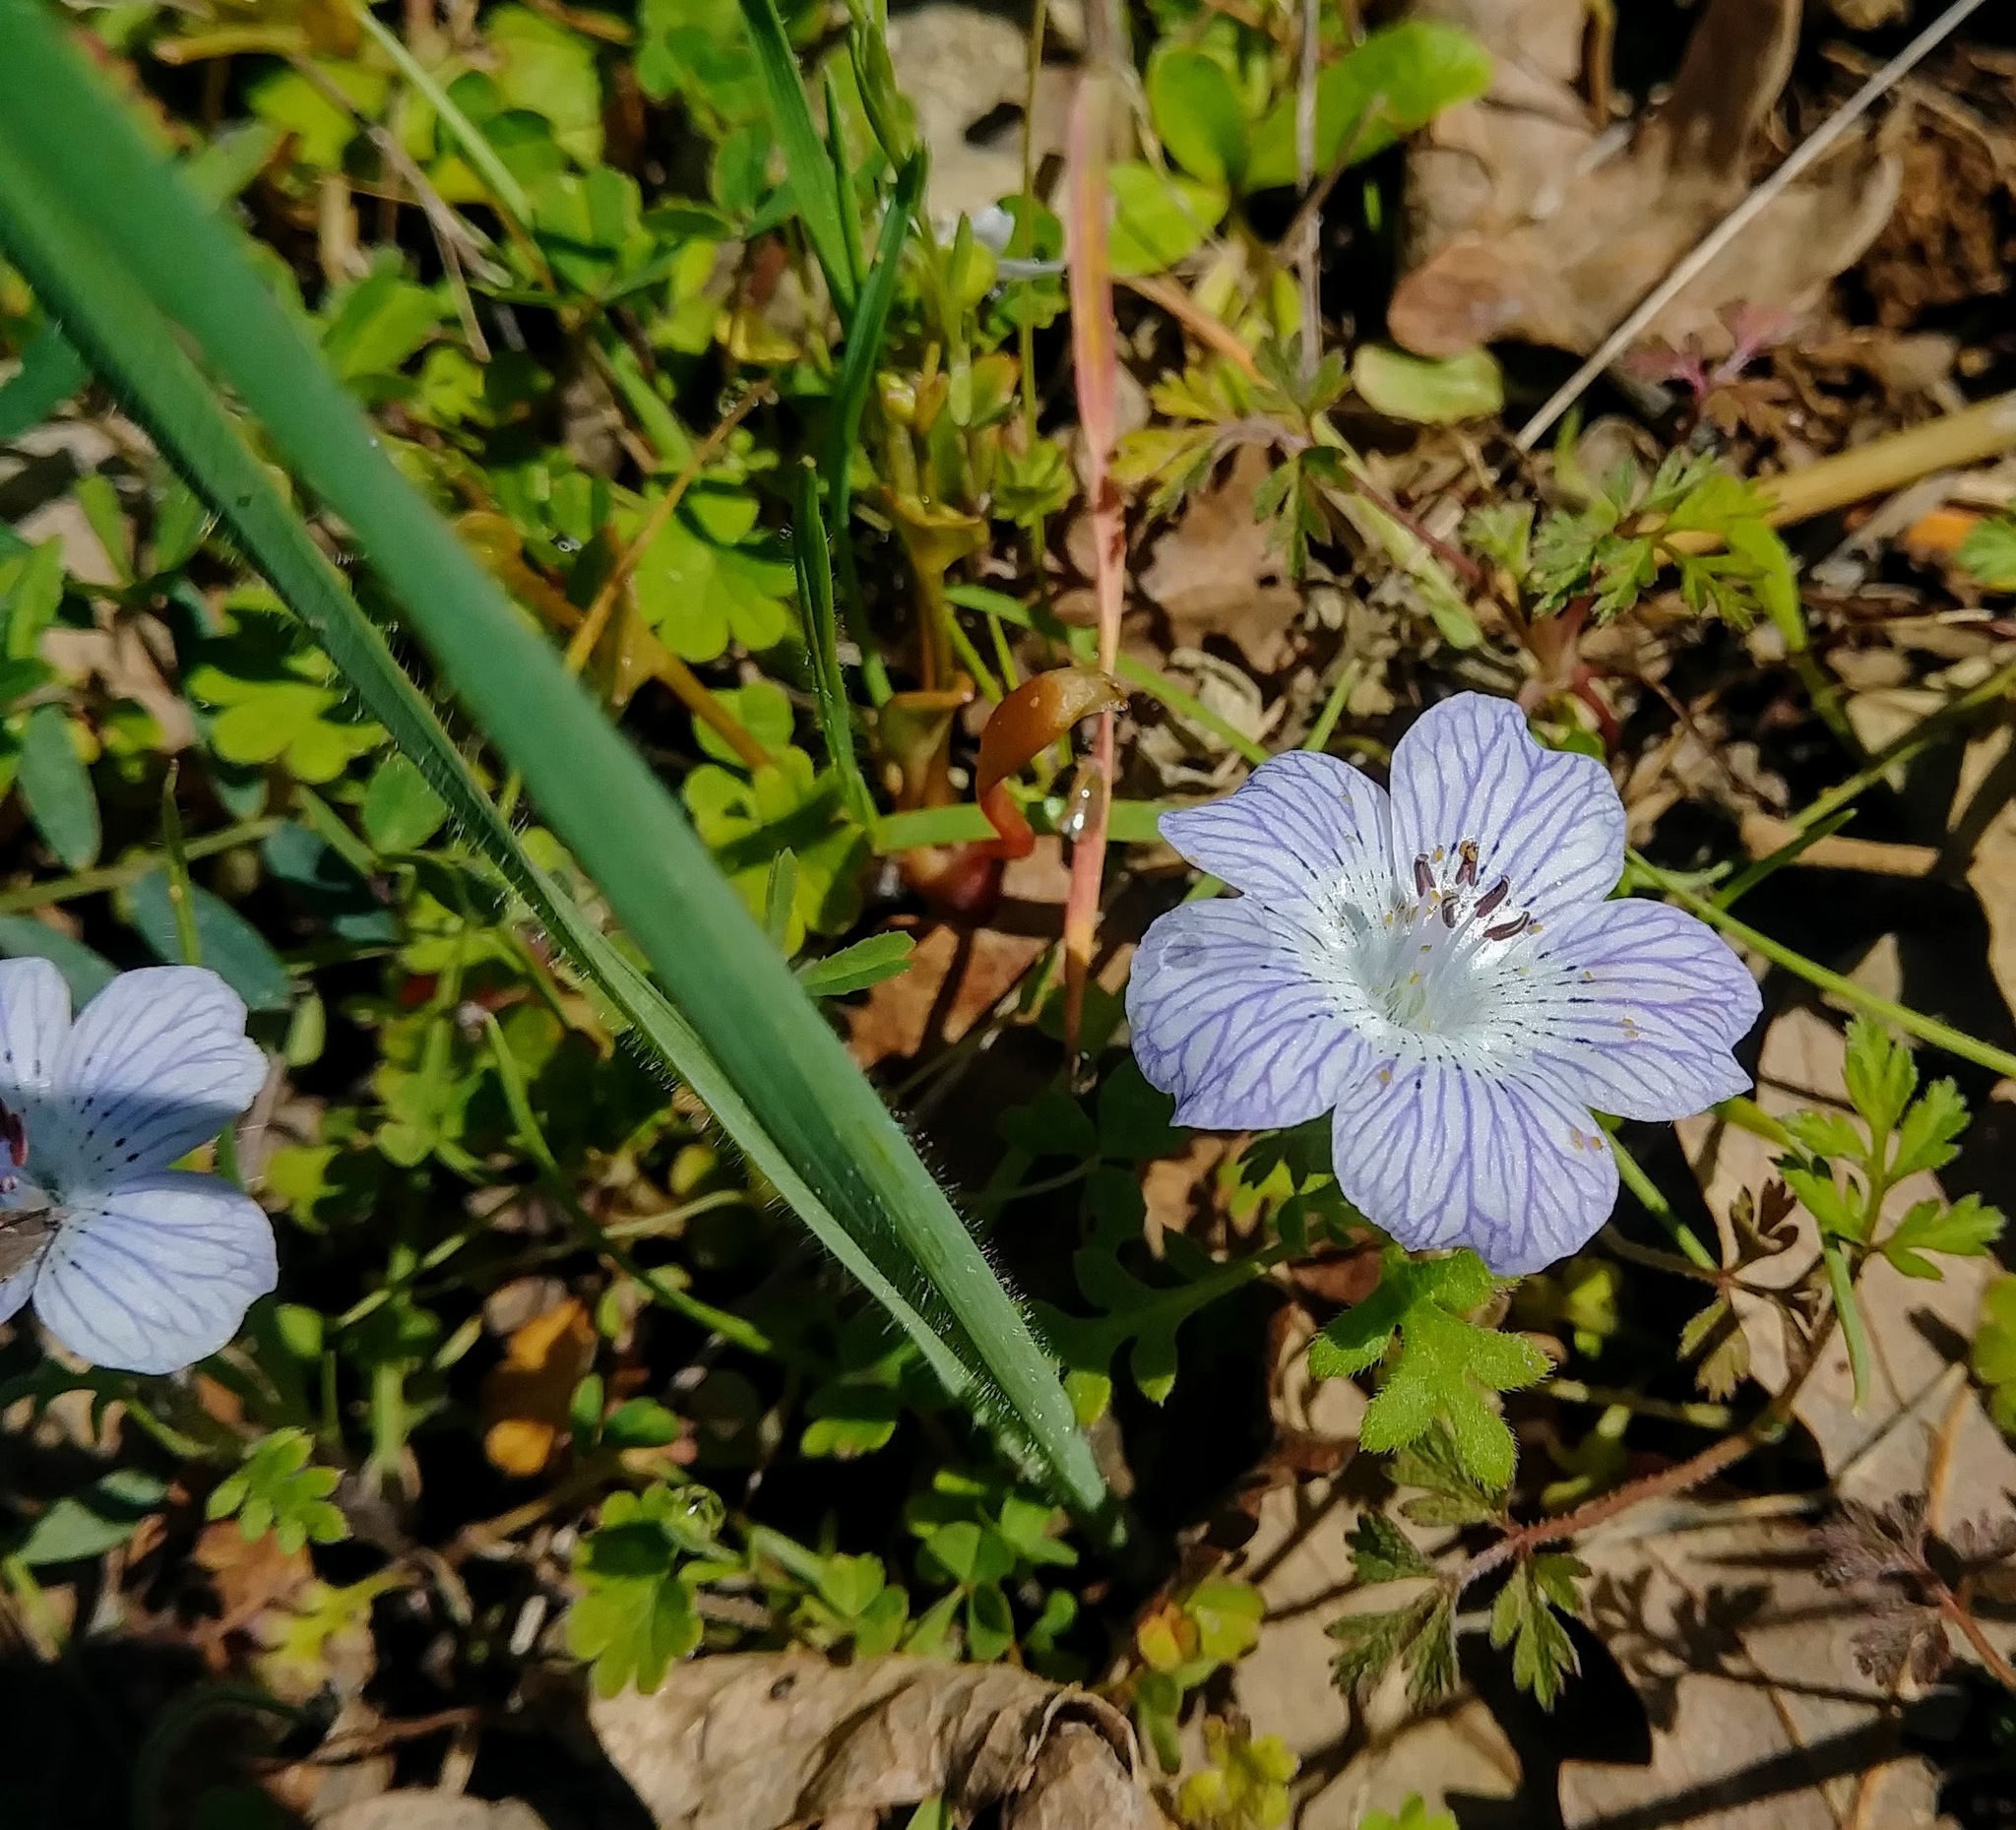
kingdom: Plantae
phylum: Tracheophyta
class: Magnoliopsida
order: Boraginales
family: Hydrophyllaceae
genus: Nemophila
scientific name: Nemophila menziesii
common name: Baby's-blue-eyes
